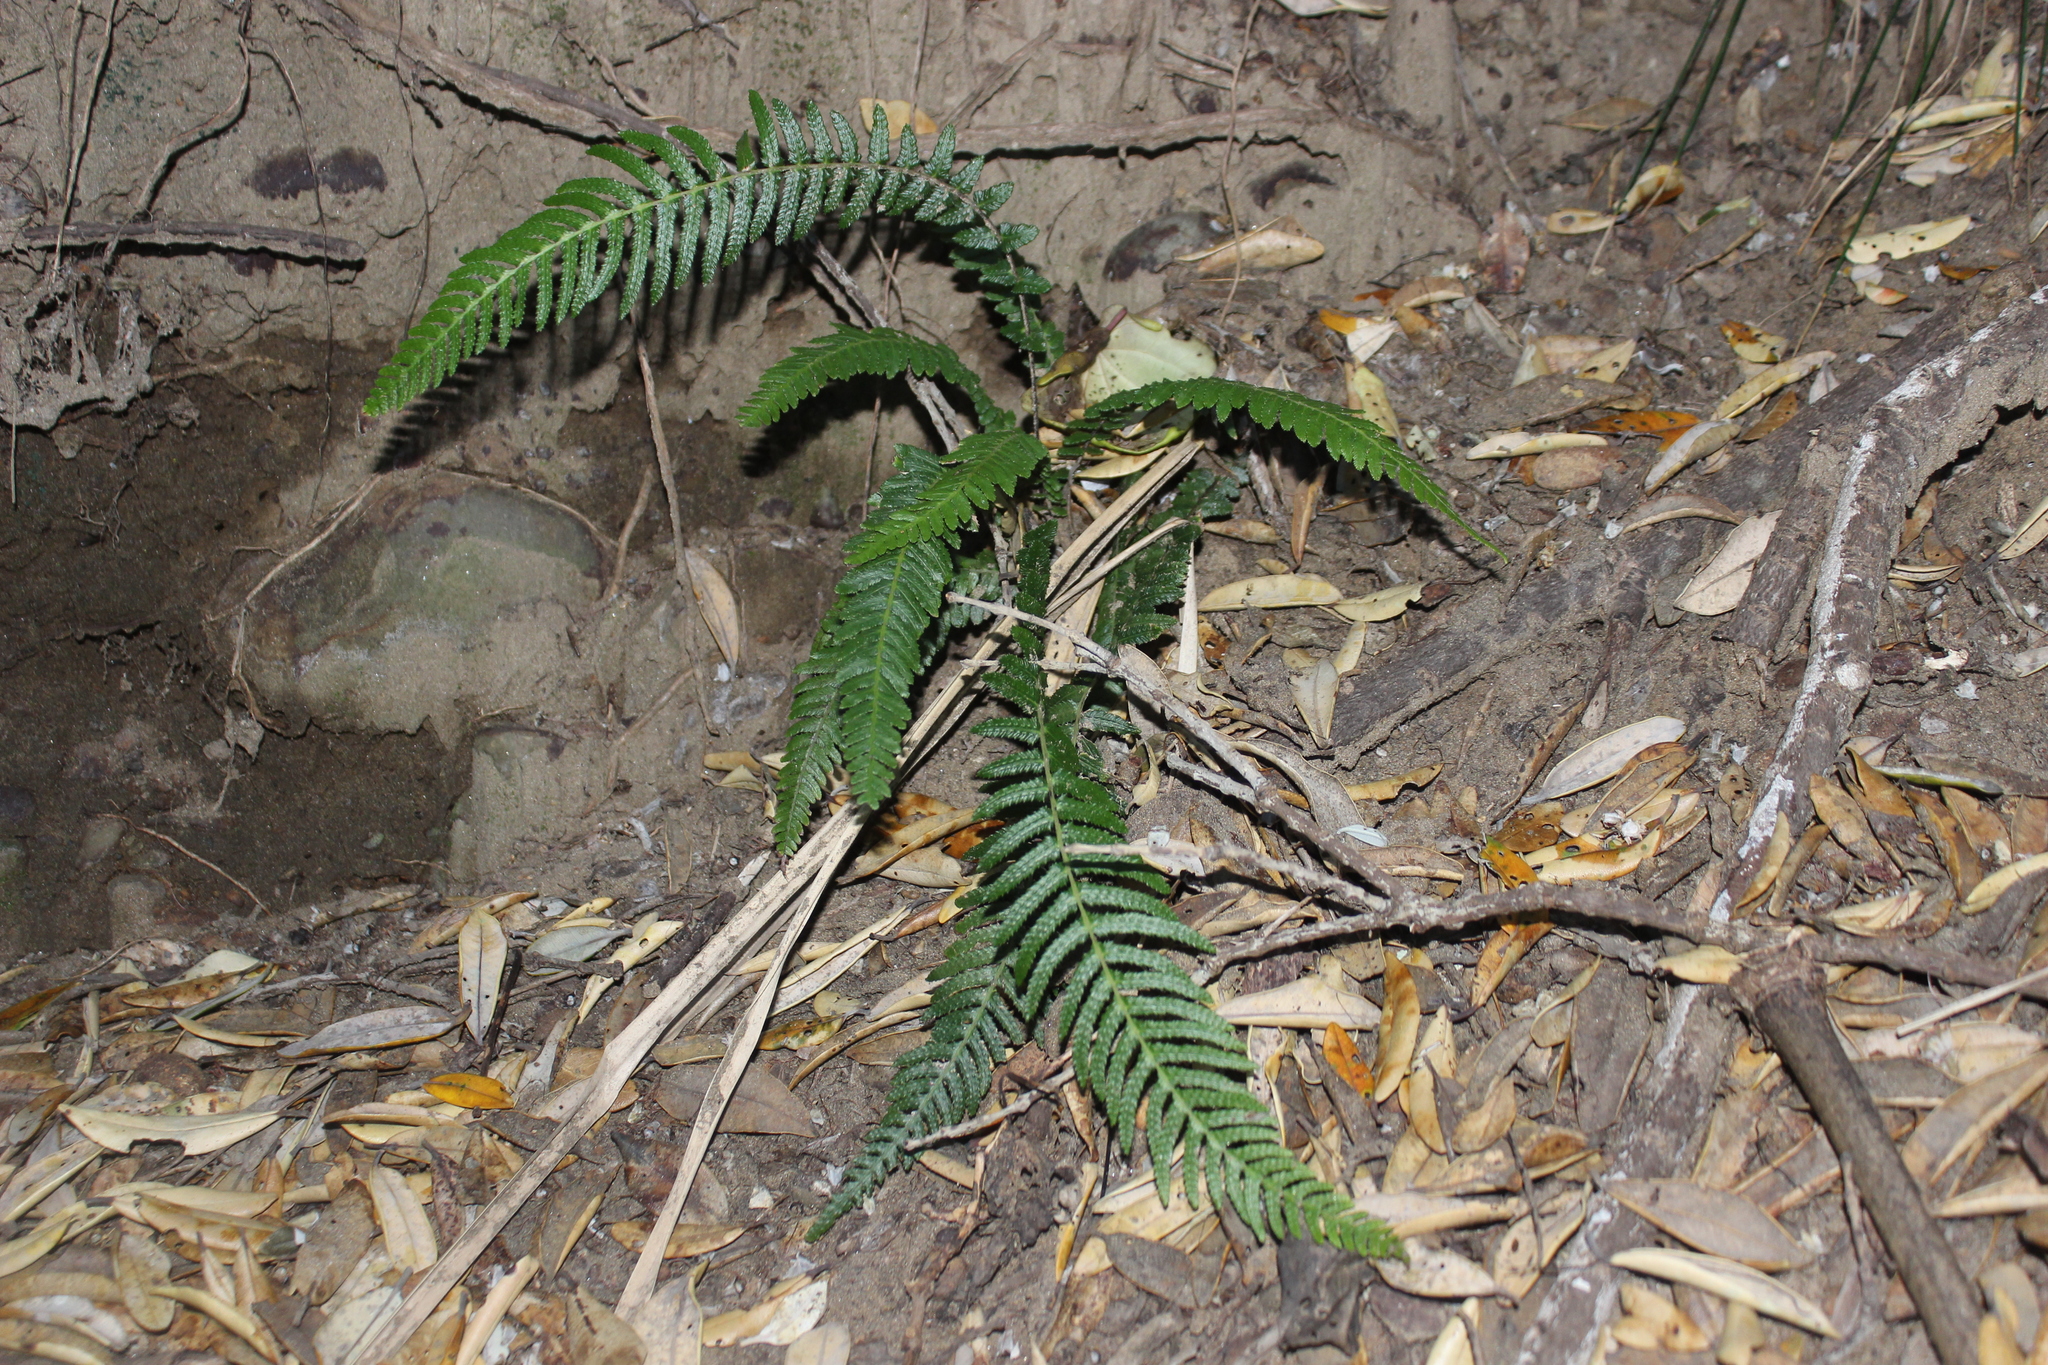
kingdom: Plantae
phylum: Tracheophyta
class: Polypodiopsida
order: Polypodiales
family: Blechnaceae
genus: Doodia
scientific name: Doodia australis
